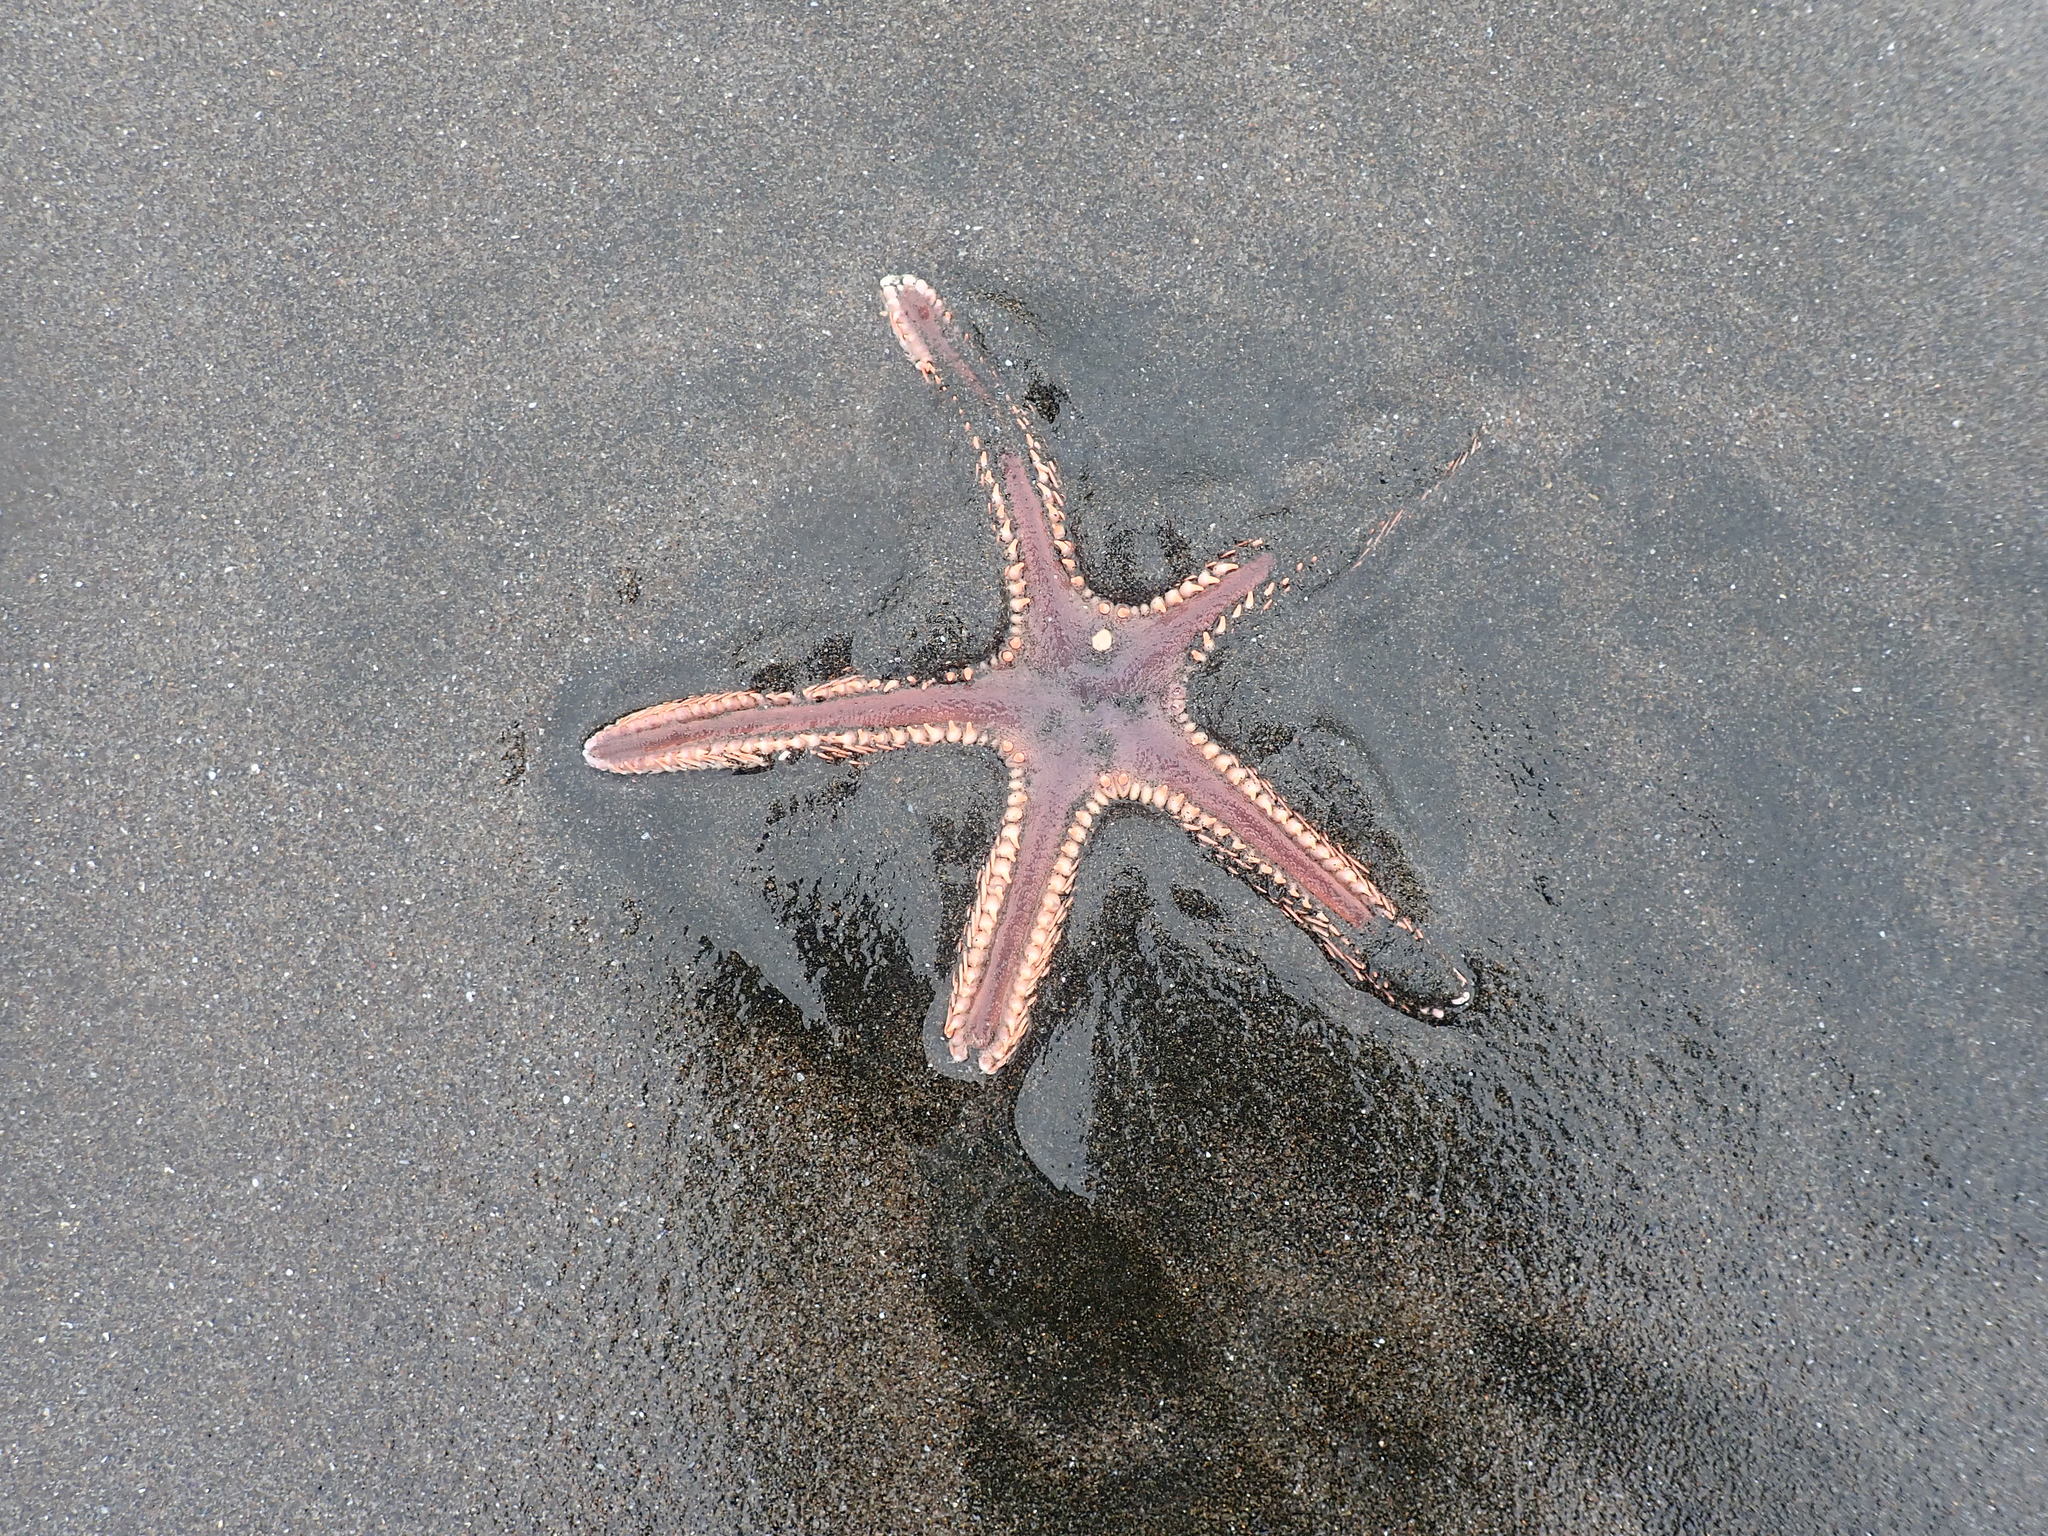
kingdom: Animalia
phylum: Echinodermata
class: Asteroidea
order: Paxillosida
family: Astropectinidae
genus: Astropecten
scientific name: Astropecten polyacanthus
